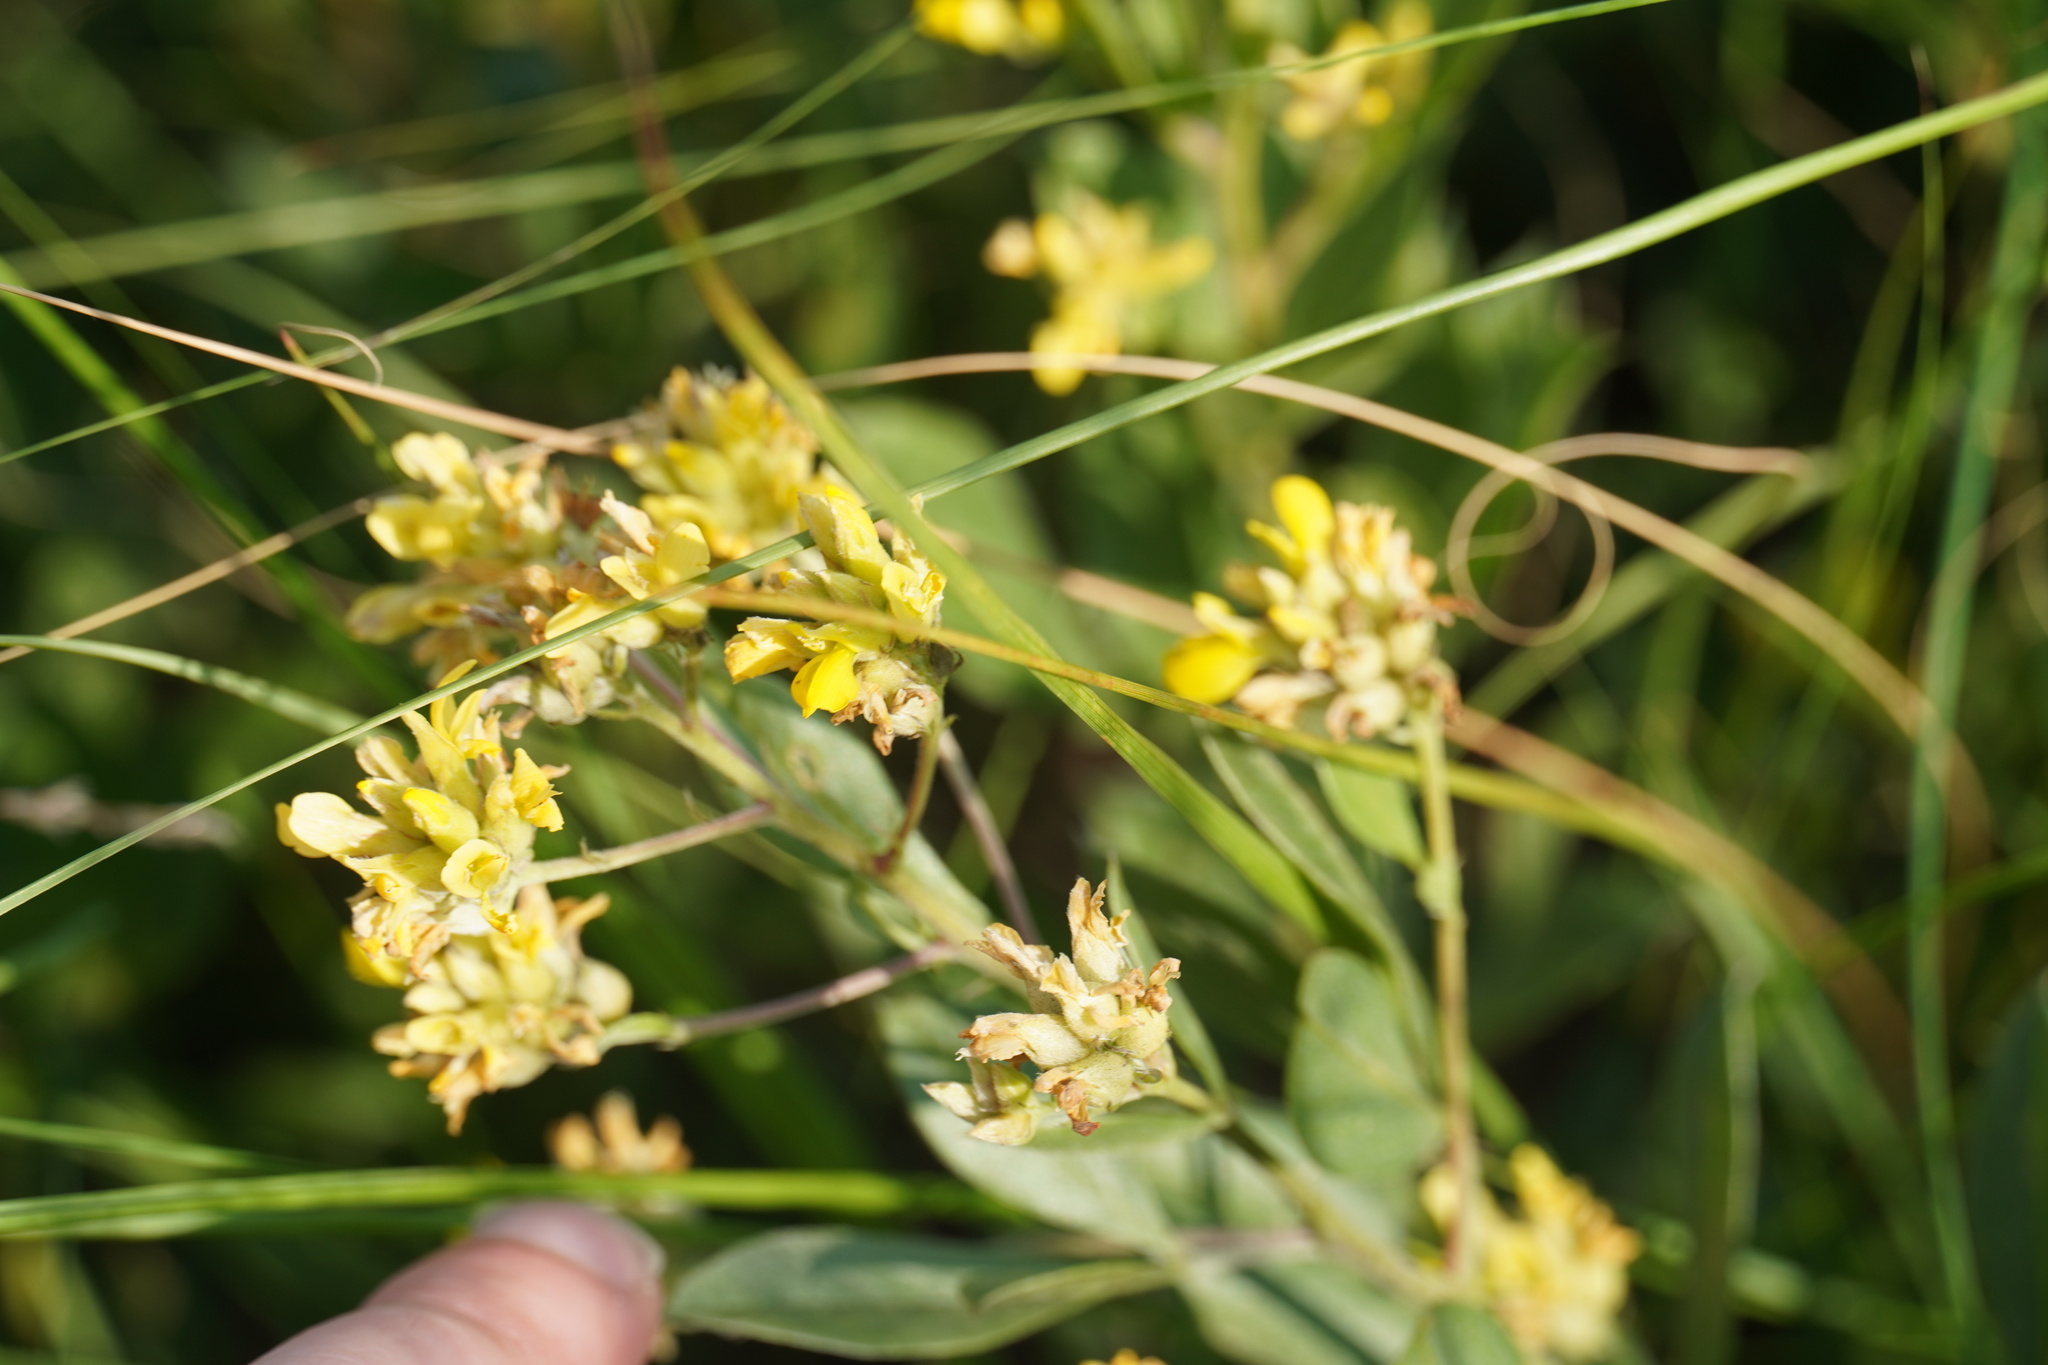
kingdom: Plantae
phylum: Tracheophyta
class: Magnoliopsida
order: Fabales
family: Fabaceae
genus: Pearsonia
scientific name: Pearsonia cajanifolia
